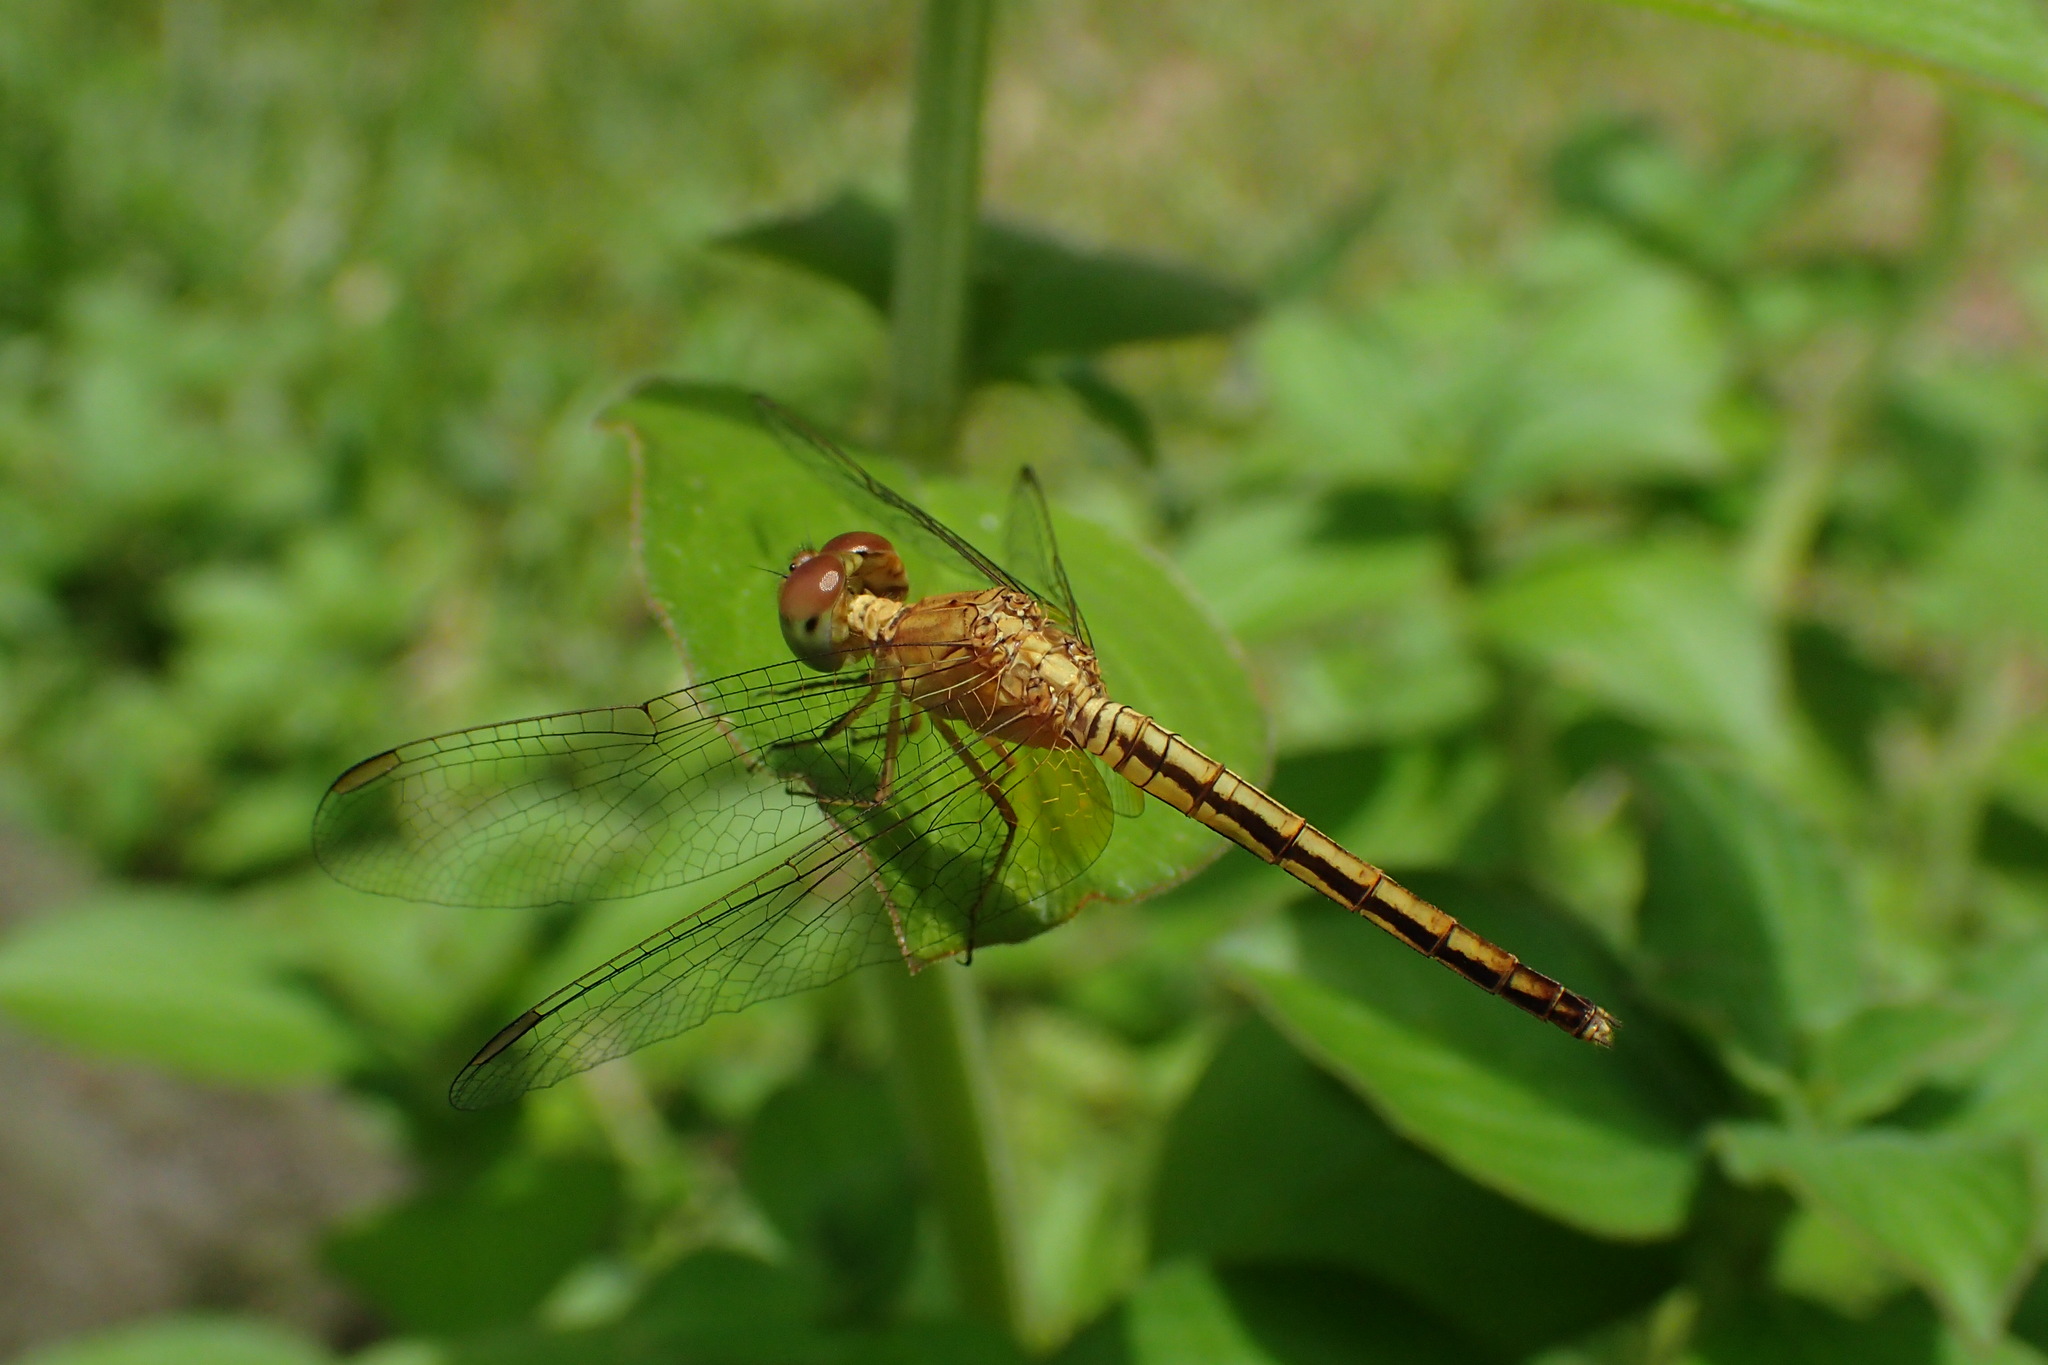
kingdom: Animalia
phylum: Arthropoda
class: Insecta
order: Odonata
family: Libellulidae
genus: Neurothemis
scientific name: Neurothemis intermedia
